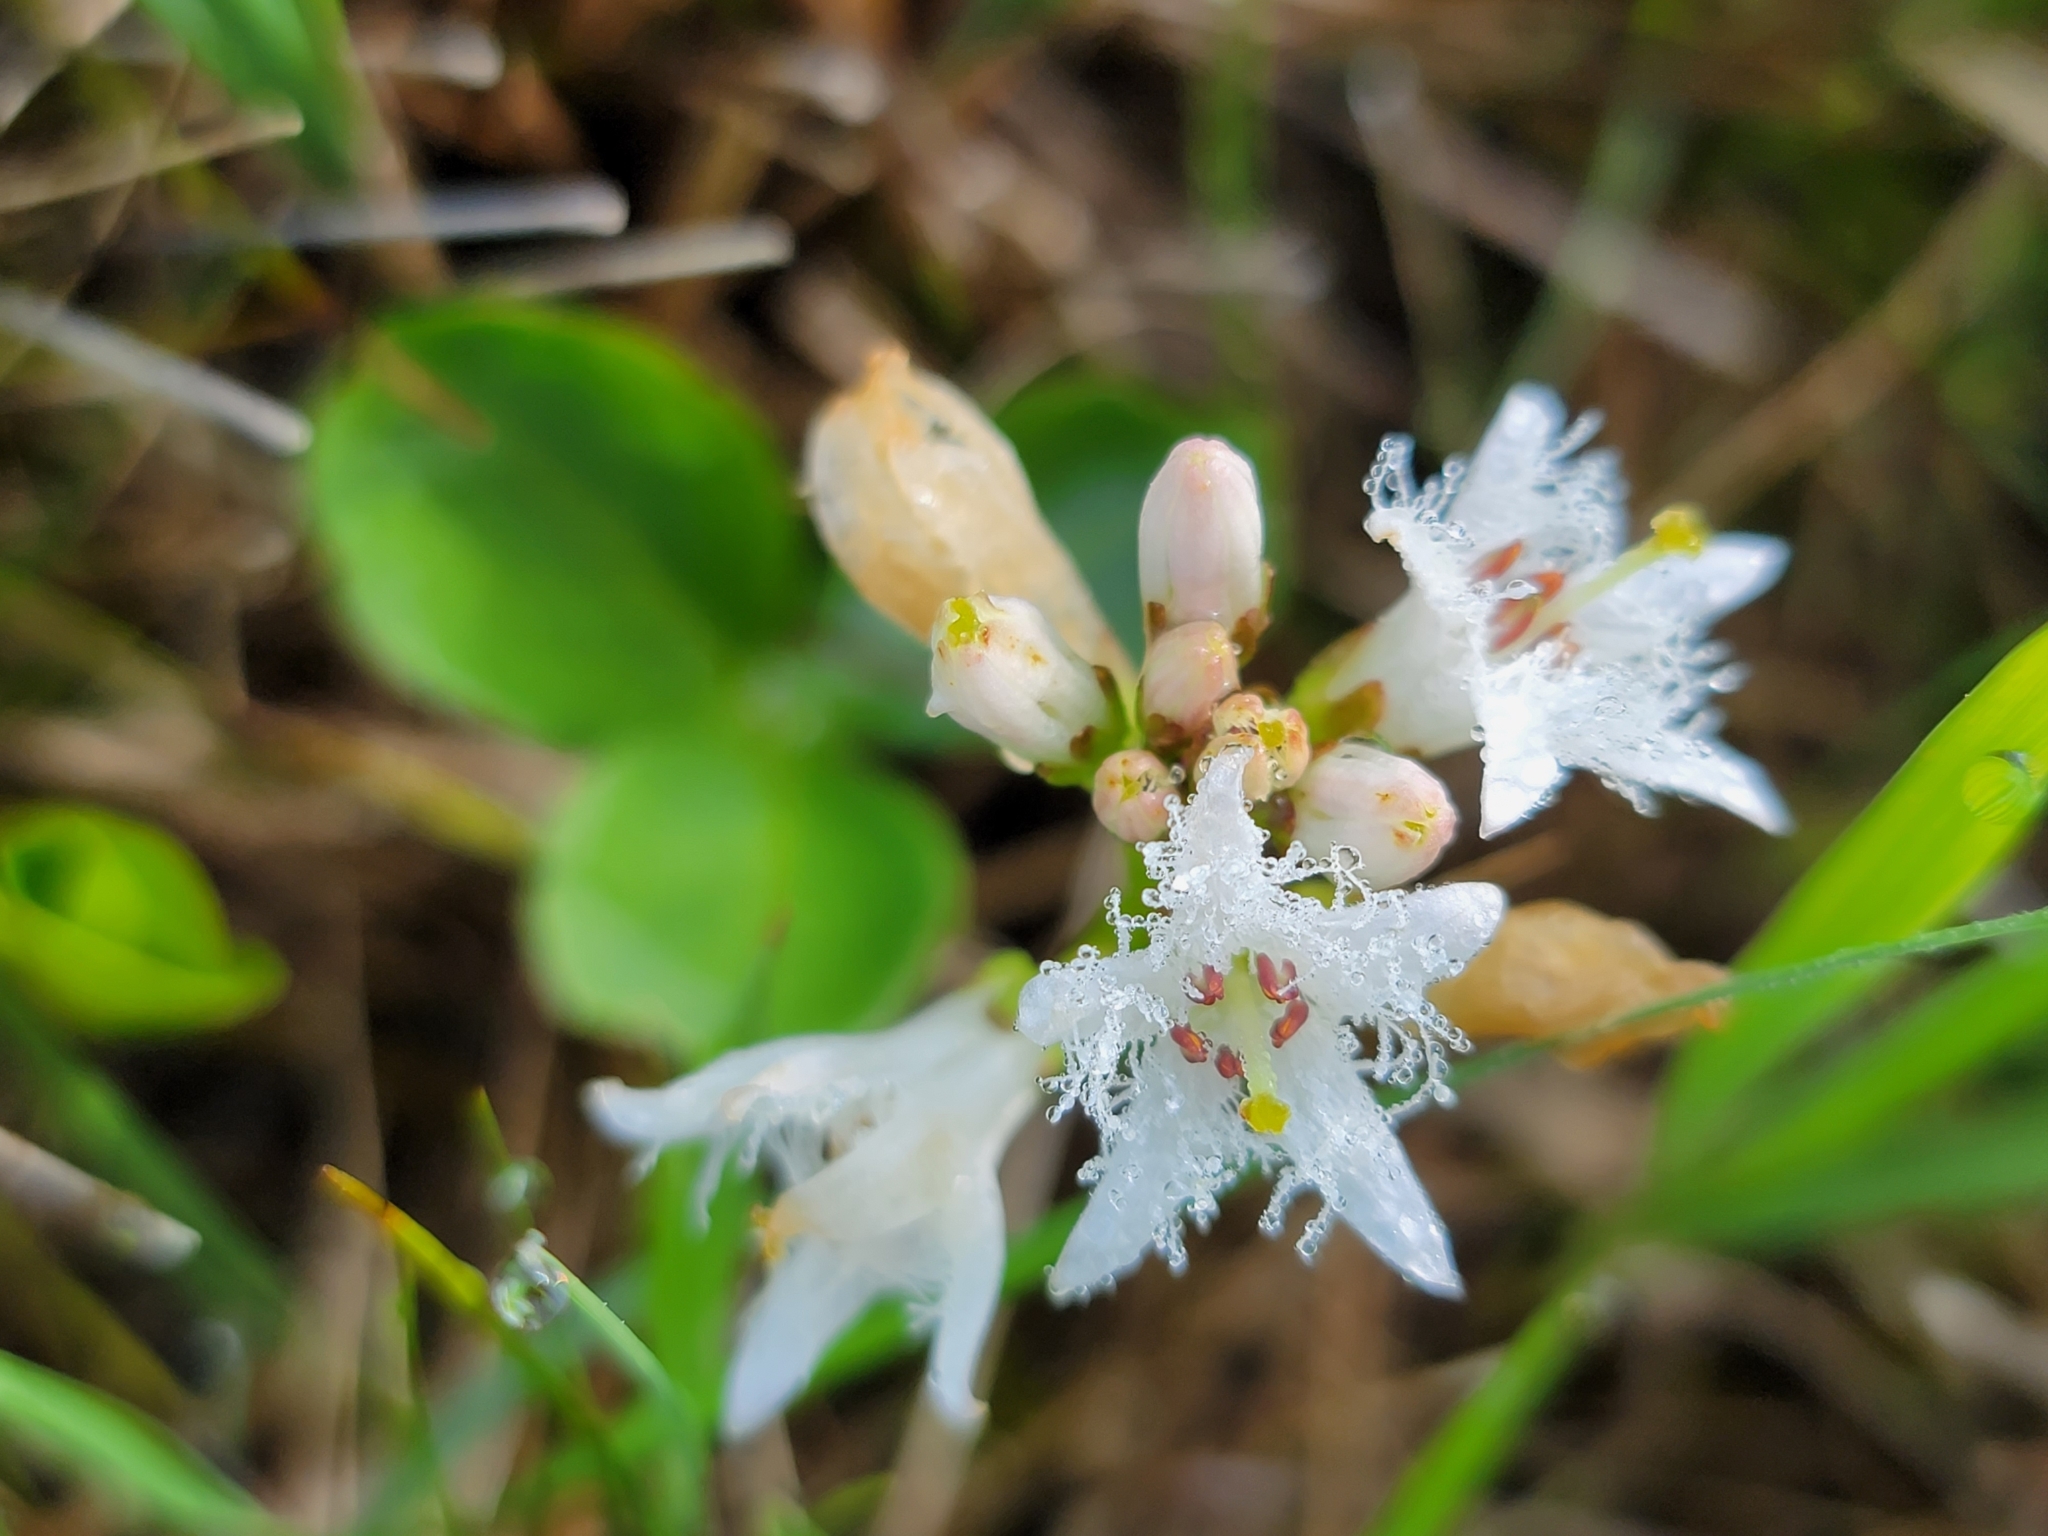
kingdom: Plantae
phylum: Tracheophyta
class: Magnoliopsida
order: Asterales
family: Menyanthaceae
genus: Menyanthes
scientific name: Menyanthes trifoliata
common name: Bogbean
